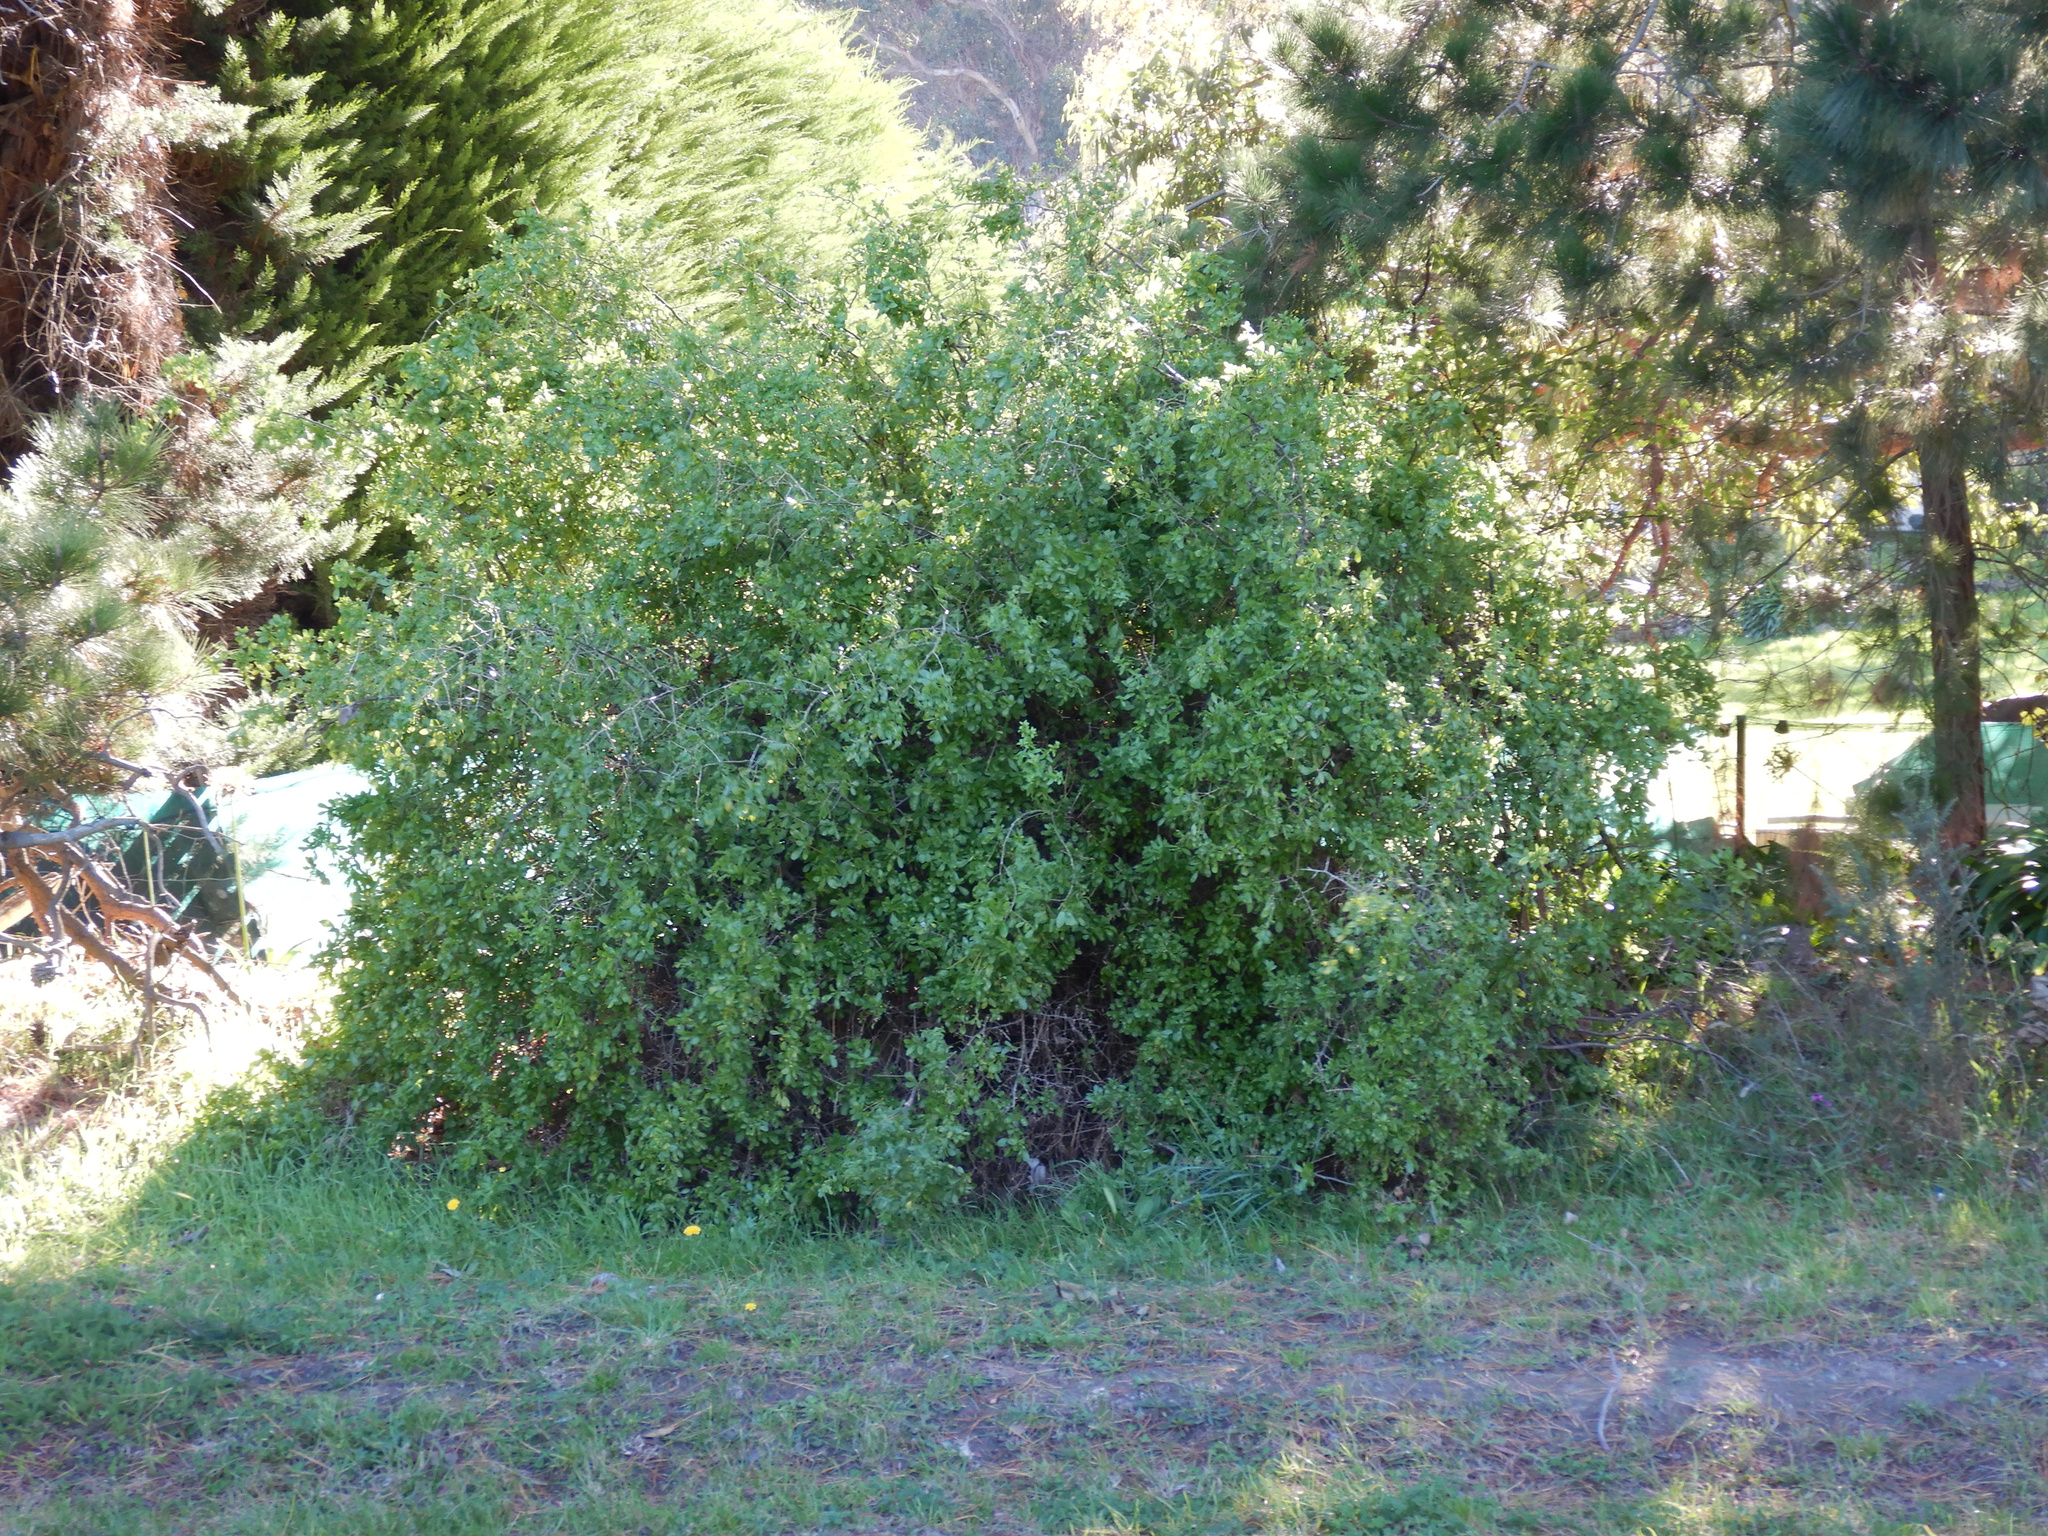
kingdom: Plantae
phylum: Tracheophyta
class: Magnoliopsida
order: Solanales
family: Solanaceae
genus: Lycium
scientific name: Lycium ferocissimum
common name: African boxthorn
